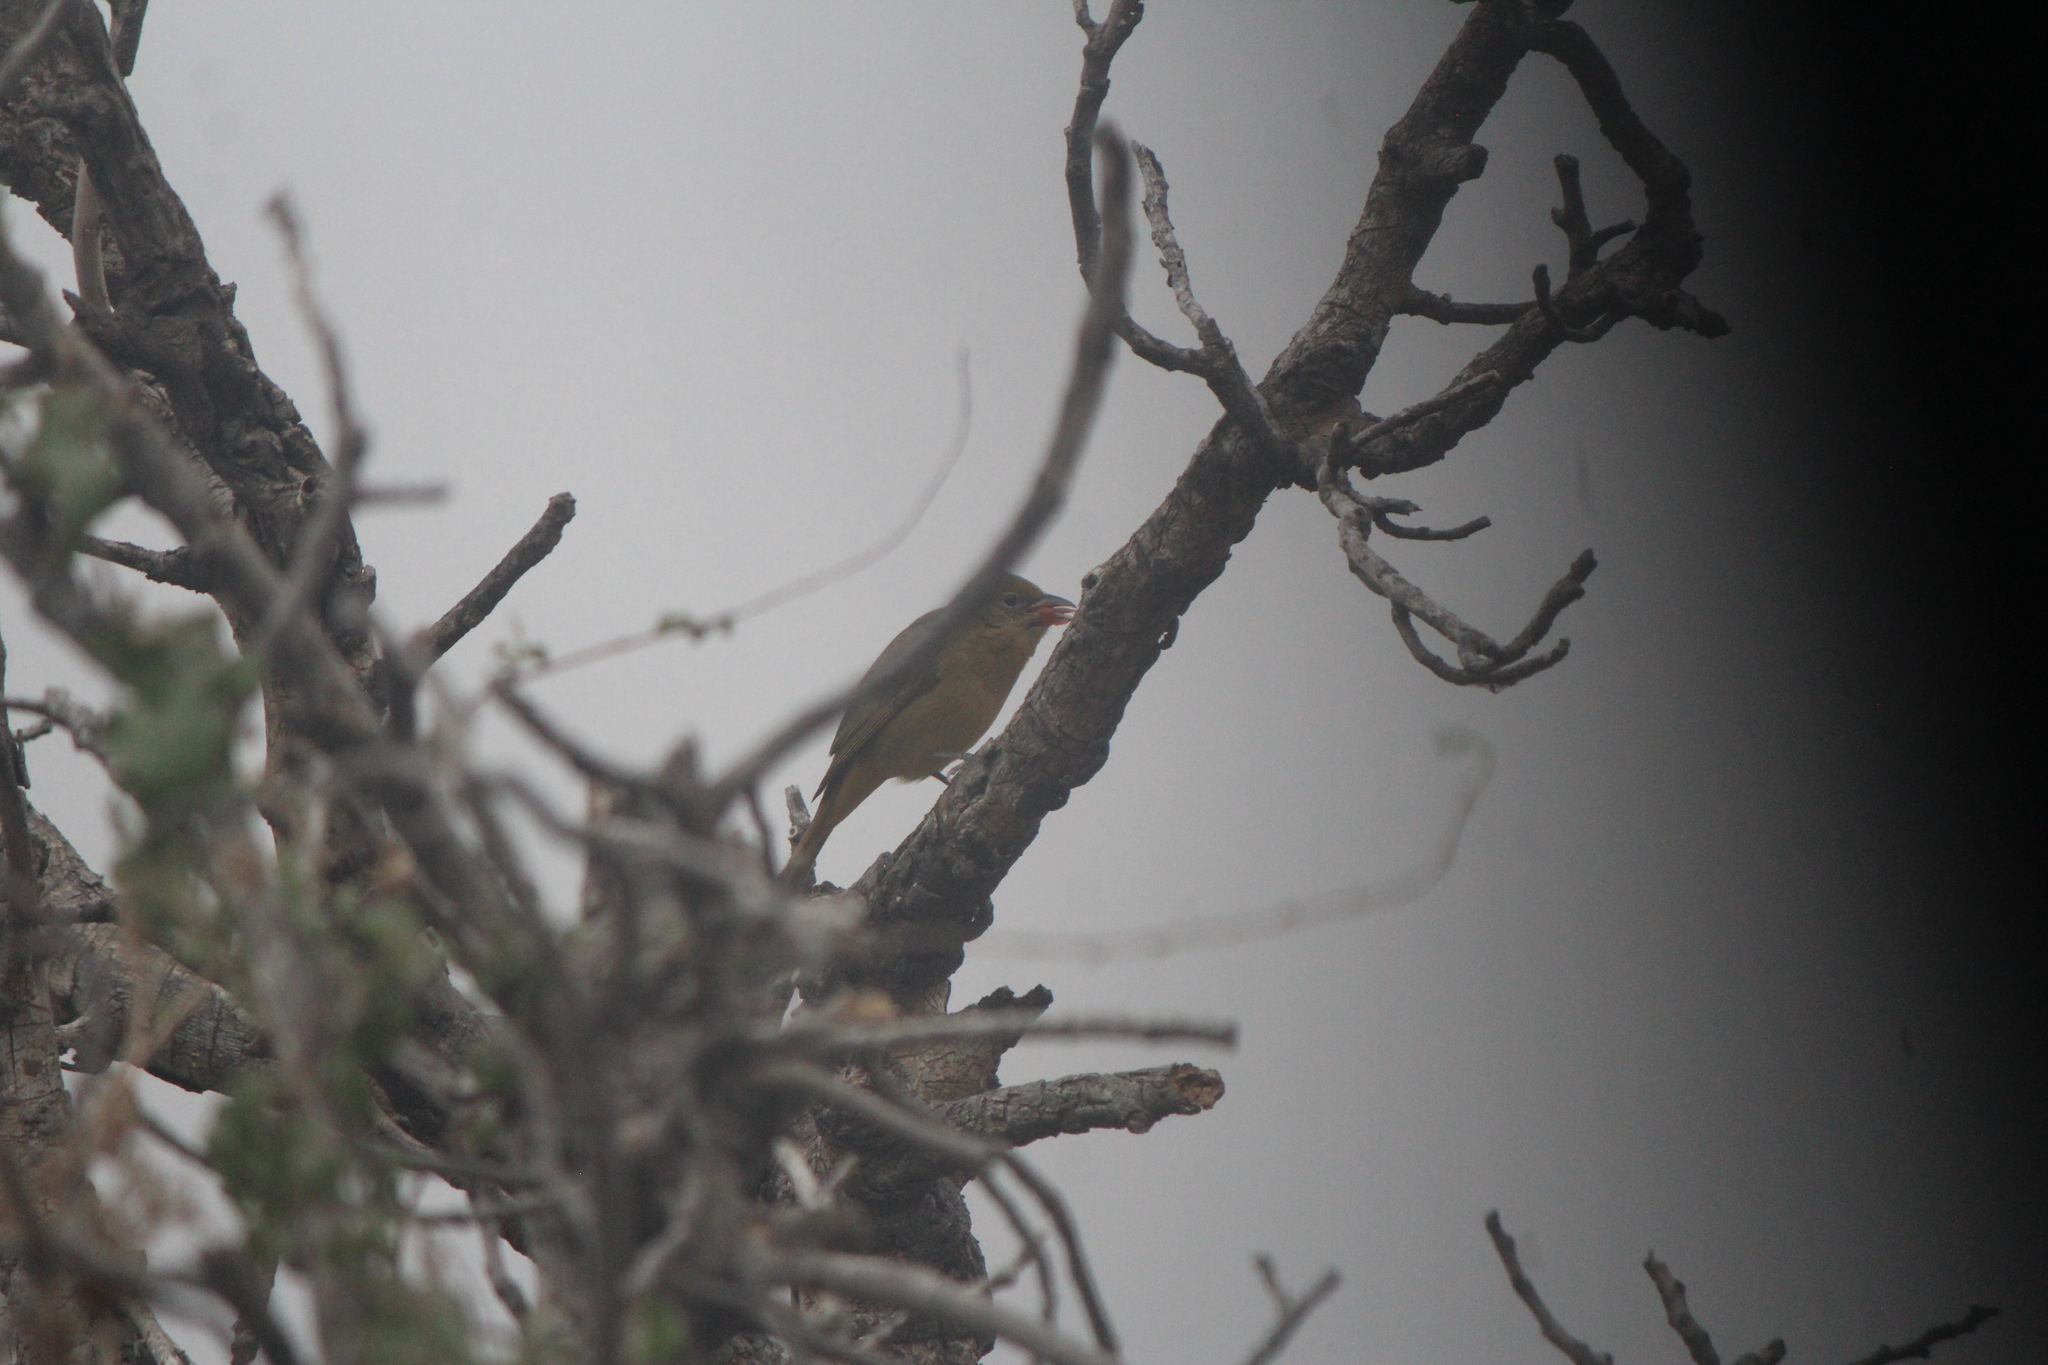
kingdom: Animalia
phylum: Chordata
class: Aves
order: Passeriformes
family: Cardinalidae
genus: Piranga
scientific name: Piranga rubra
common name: Summer tanager
